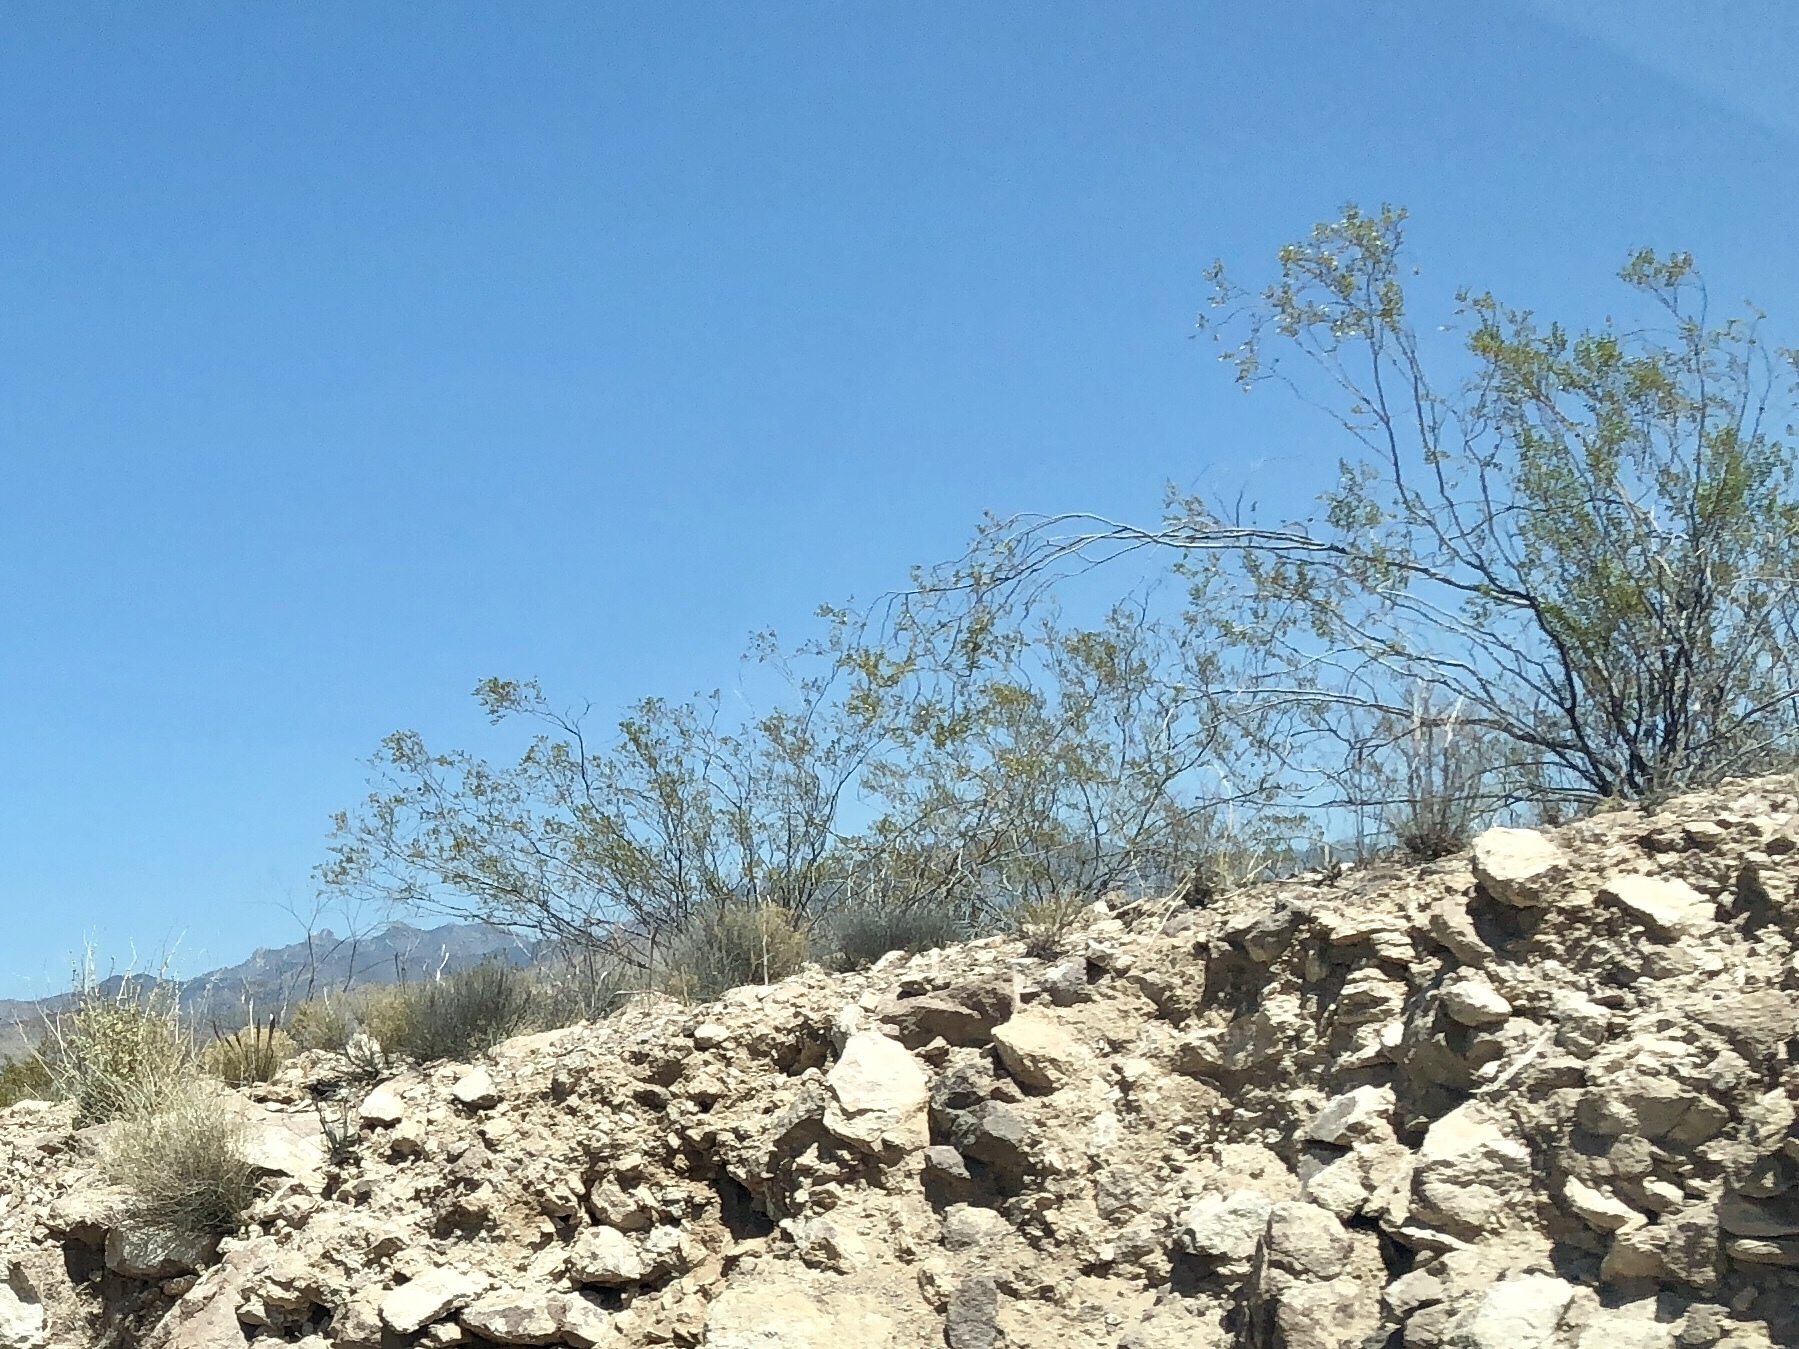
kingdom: Plantae
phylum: Tracheophyta
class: Magnoliopsida
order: Zygophyllales
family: Zygophyllaceae
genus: Larrea
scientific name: Larrea tridentata
